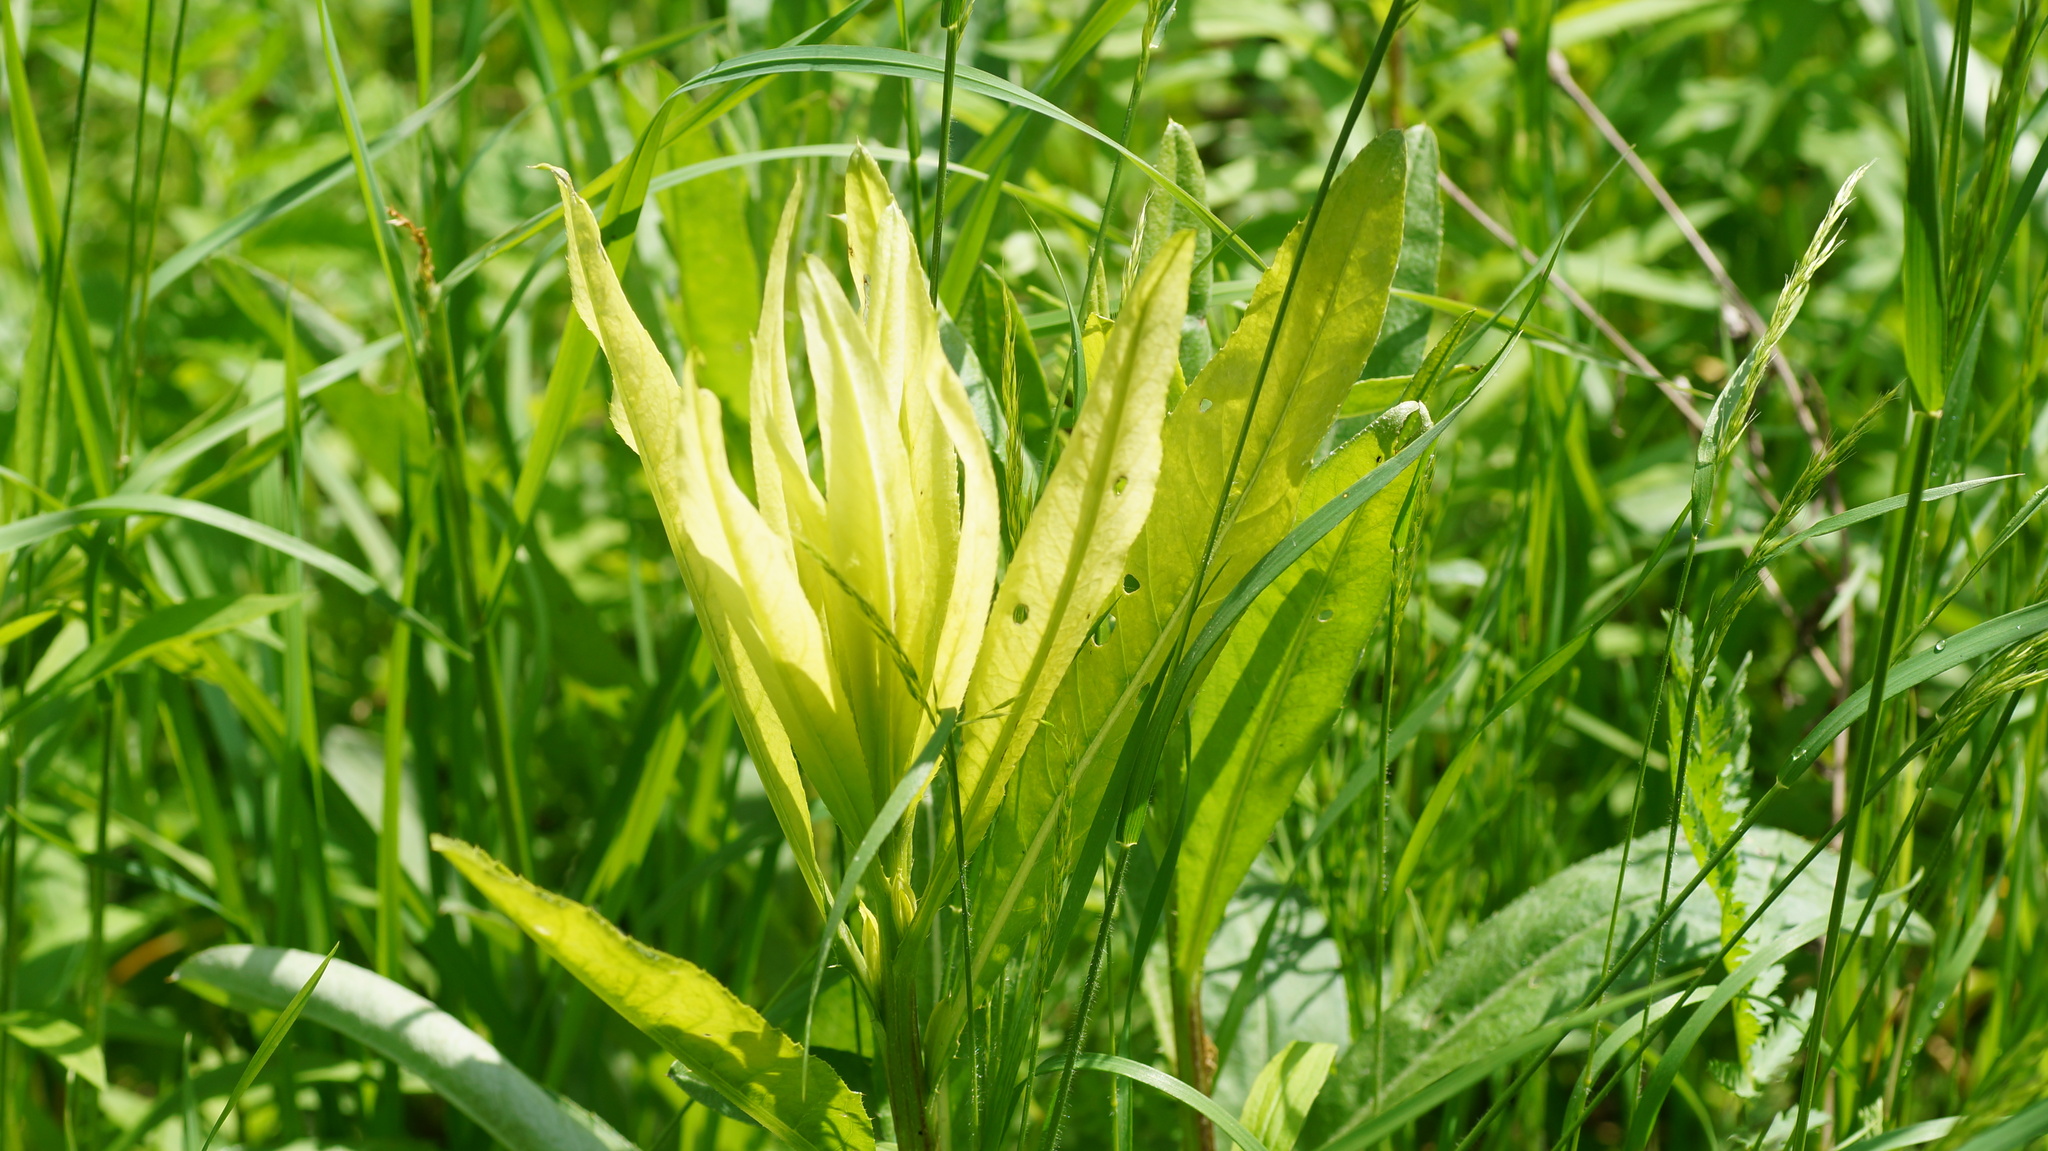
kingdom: Bacteria
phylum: Proteobacteria
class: Gammaproteobacteria
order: Pseudomonadales
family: Pseudomonadaceae
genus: Pseudomonas
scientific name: Pseudomonas syringae
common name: Bacterial speck
